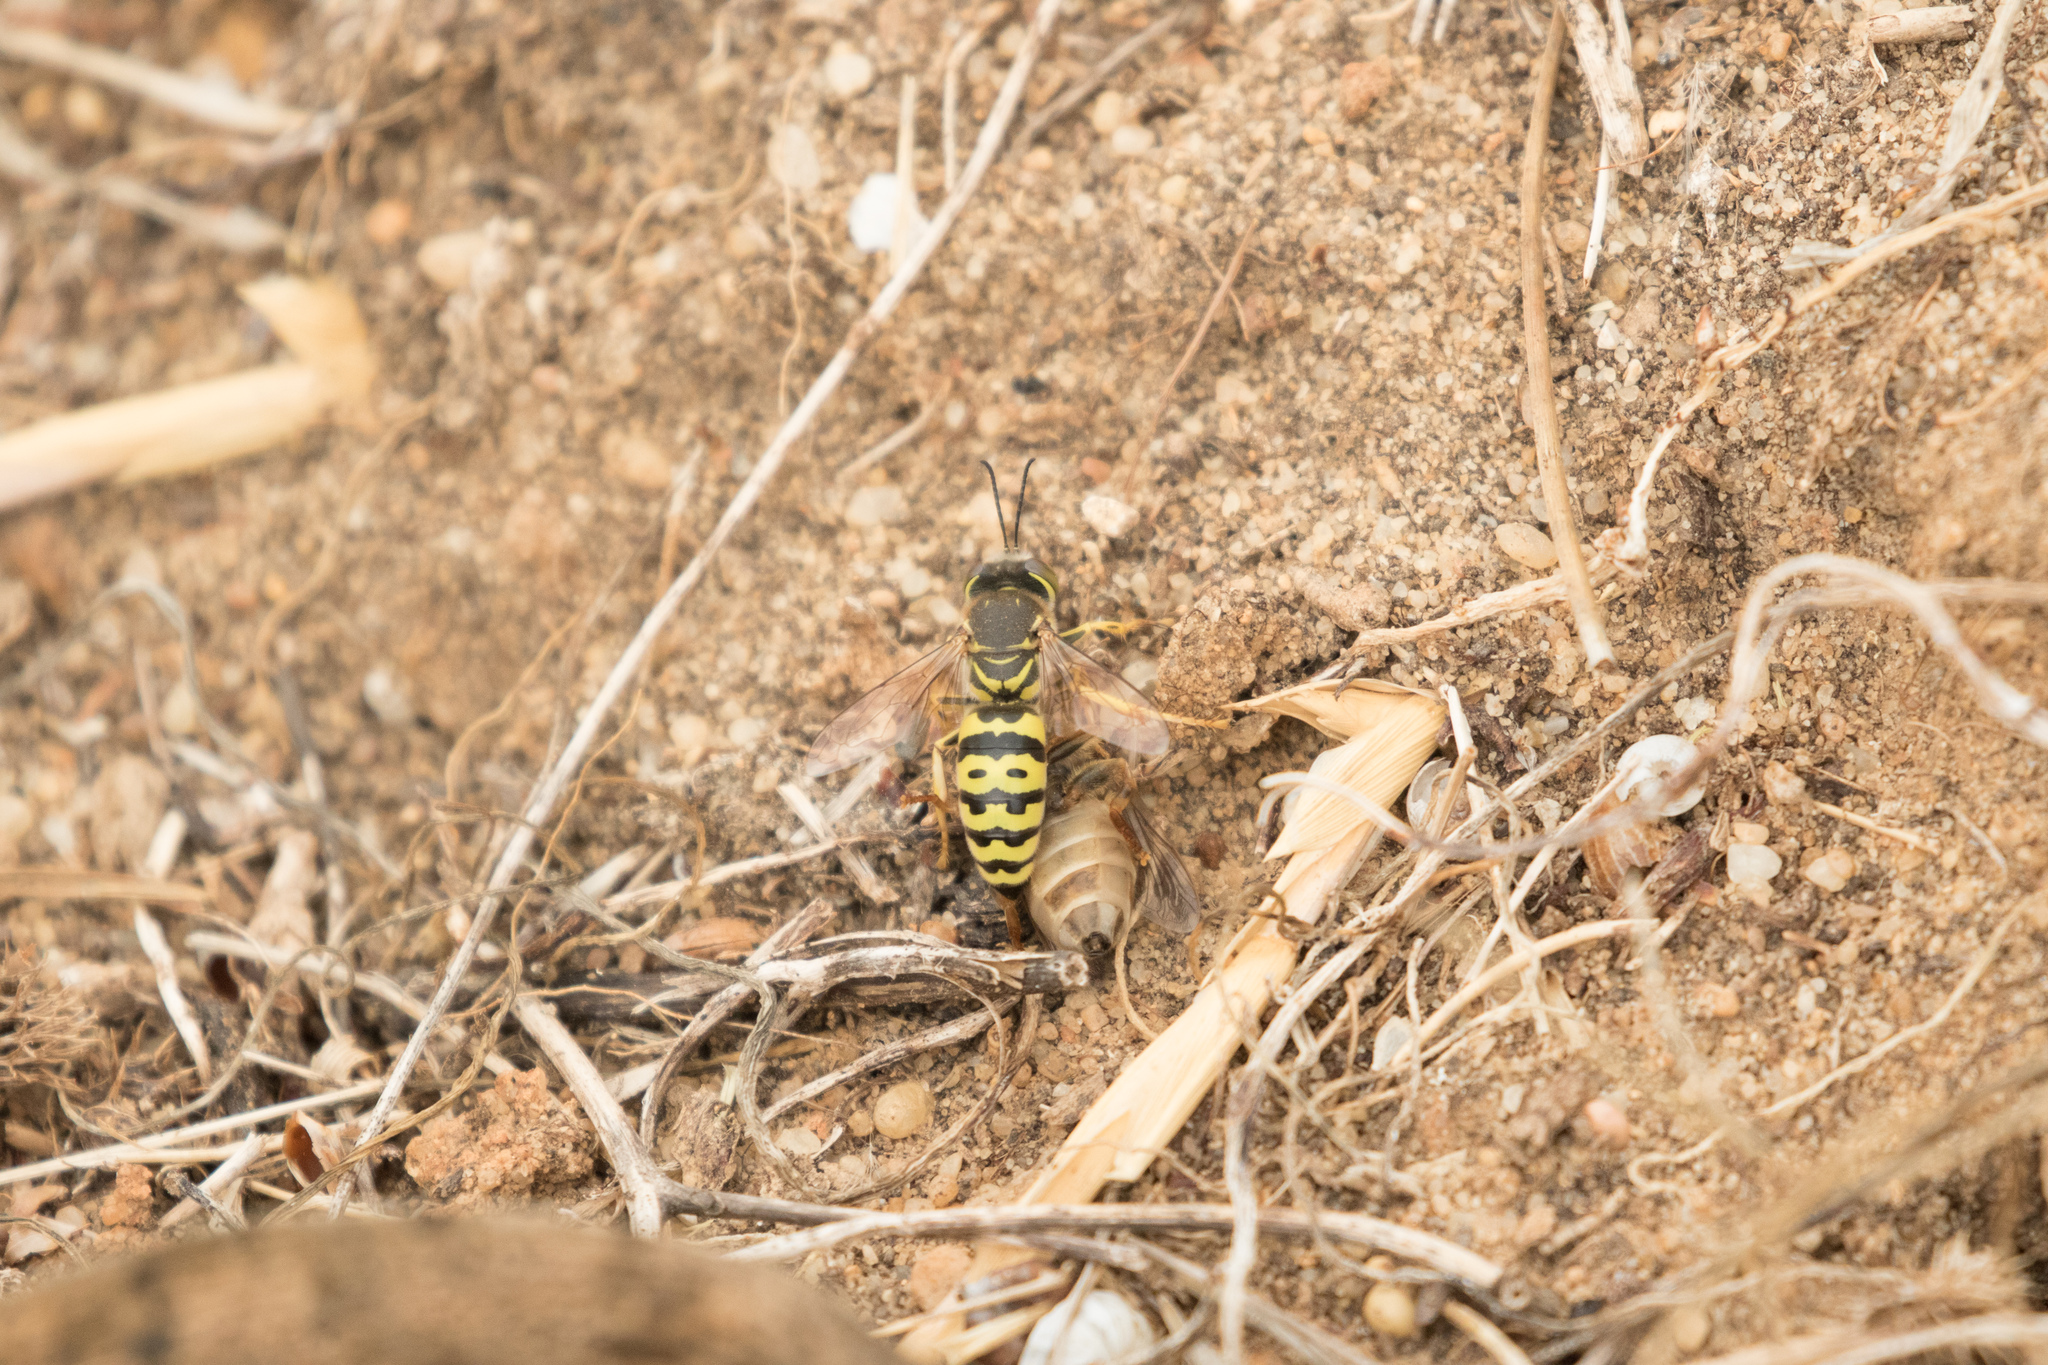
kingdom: Animalia
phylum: Arthropoda
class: Insecta
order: Hymenoptera
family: Crabronidae
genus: Bembix
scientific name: Bembix oculata
